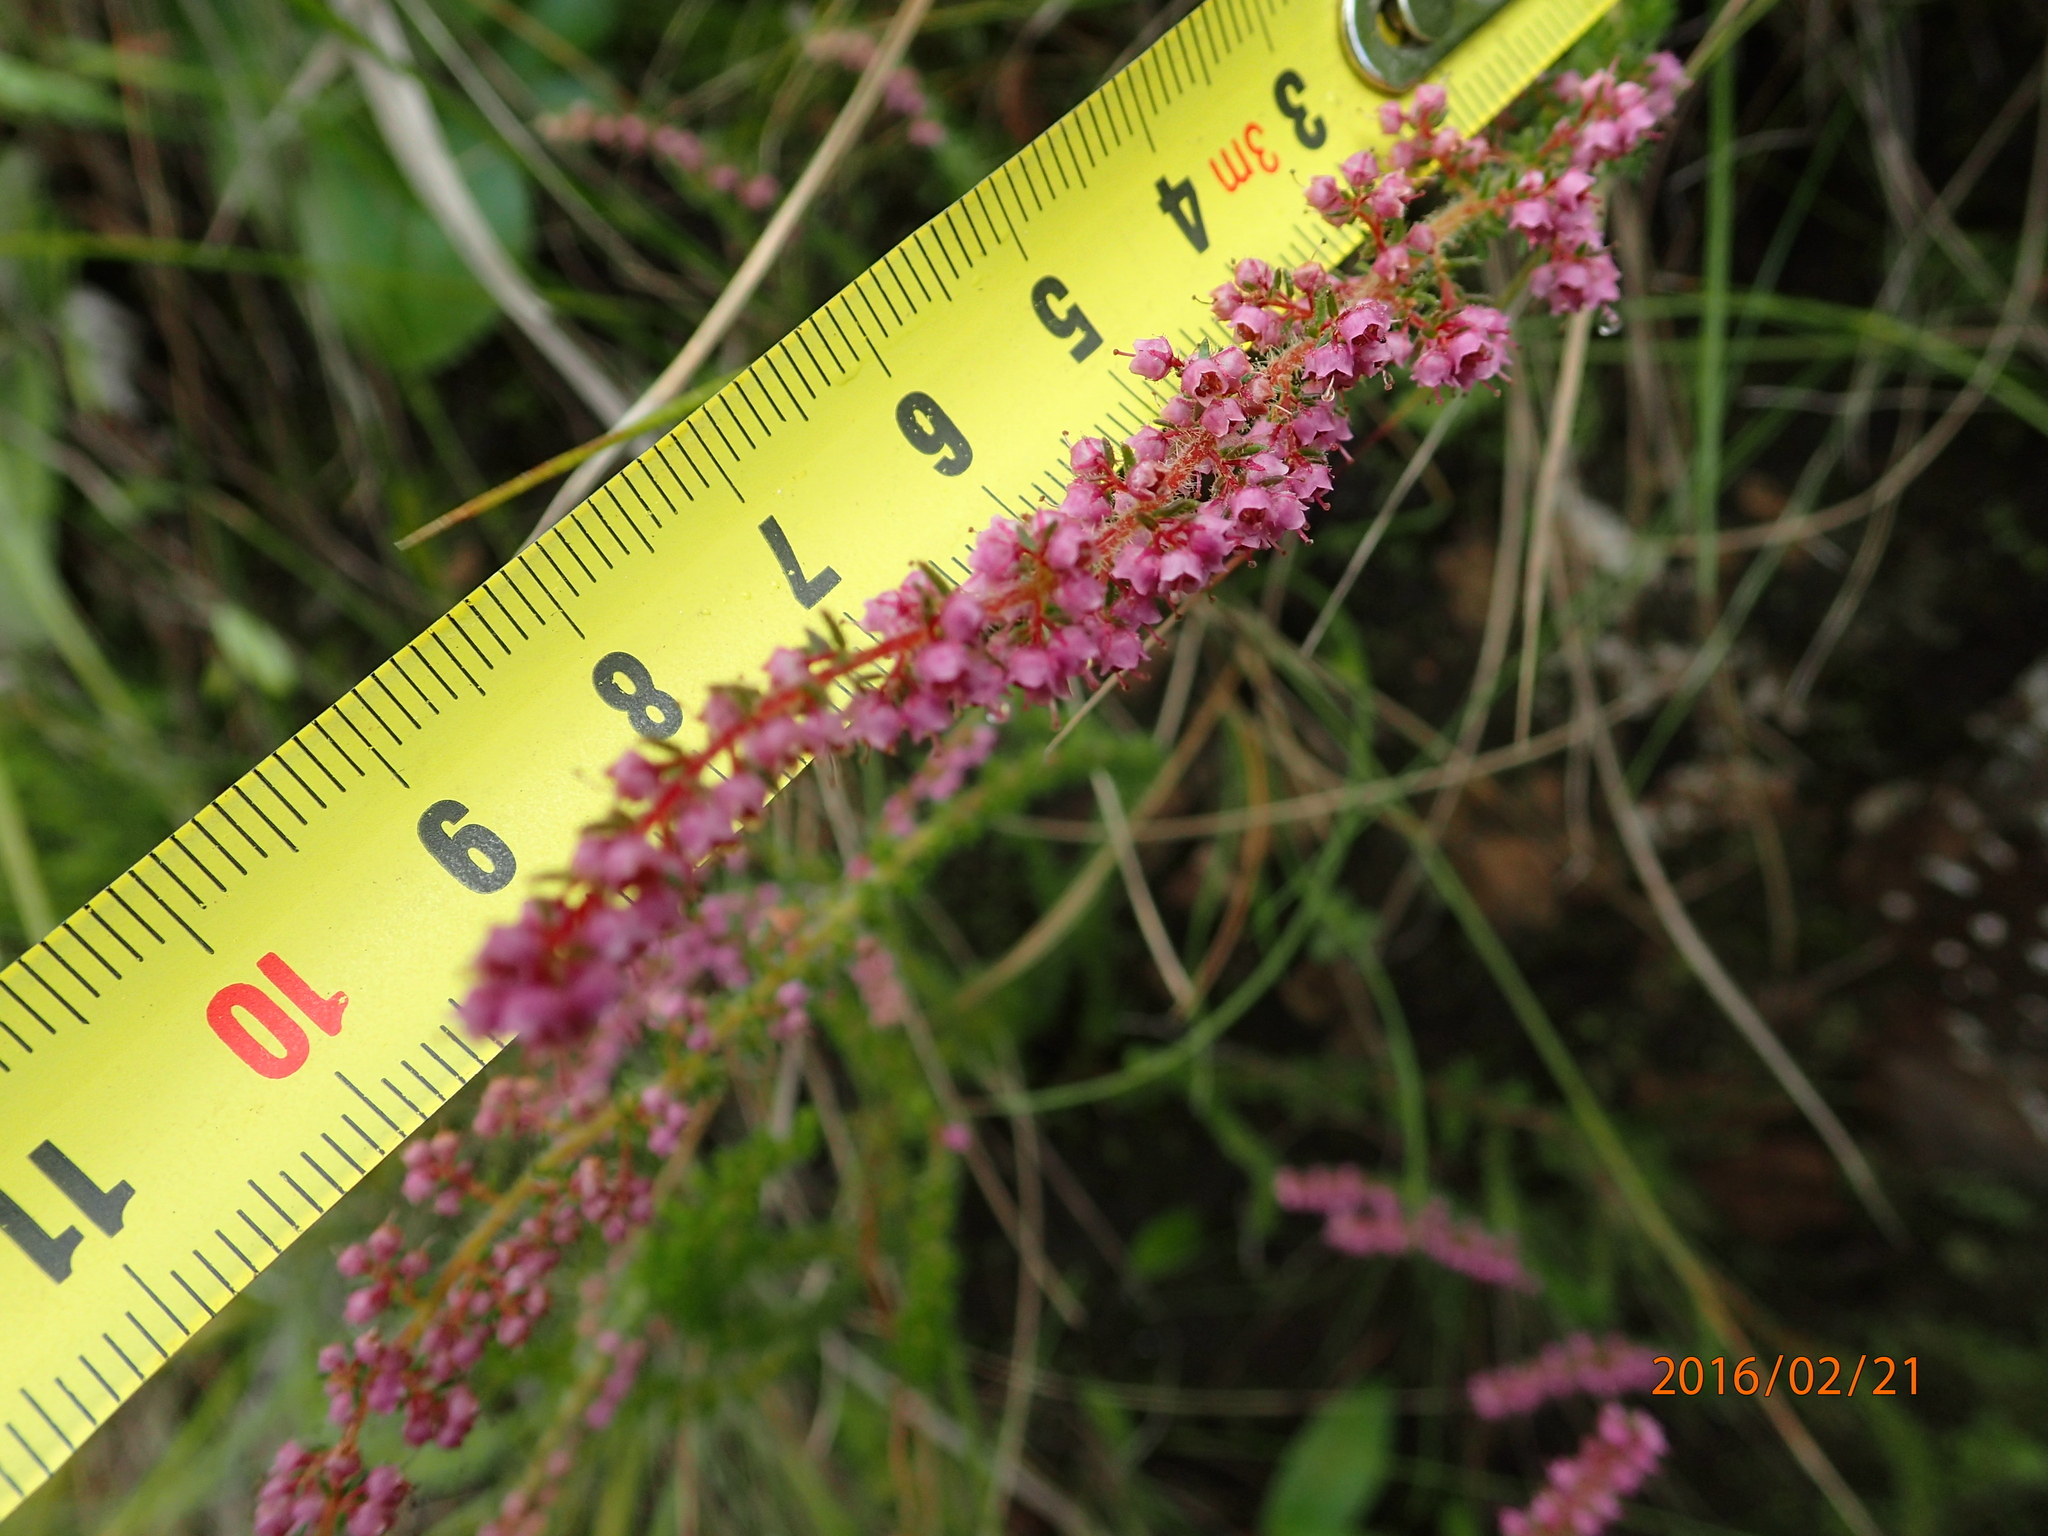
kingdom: Plantae
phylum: Tracheophyta
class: Magnoliopsida
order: Ericales
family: Ericaceae
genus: Erica
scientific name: Erica woodii
